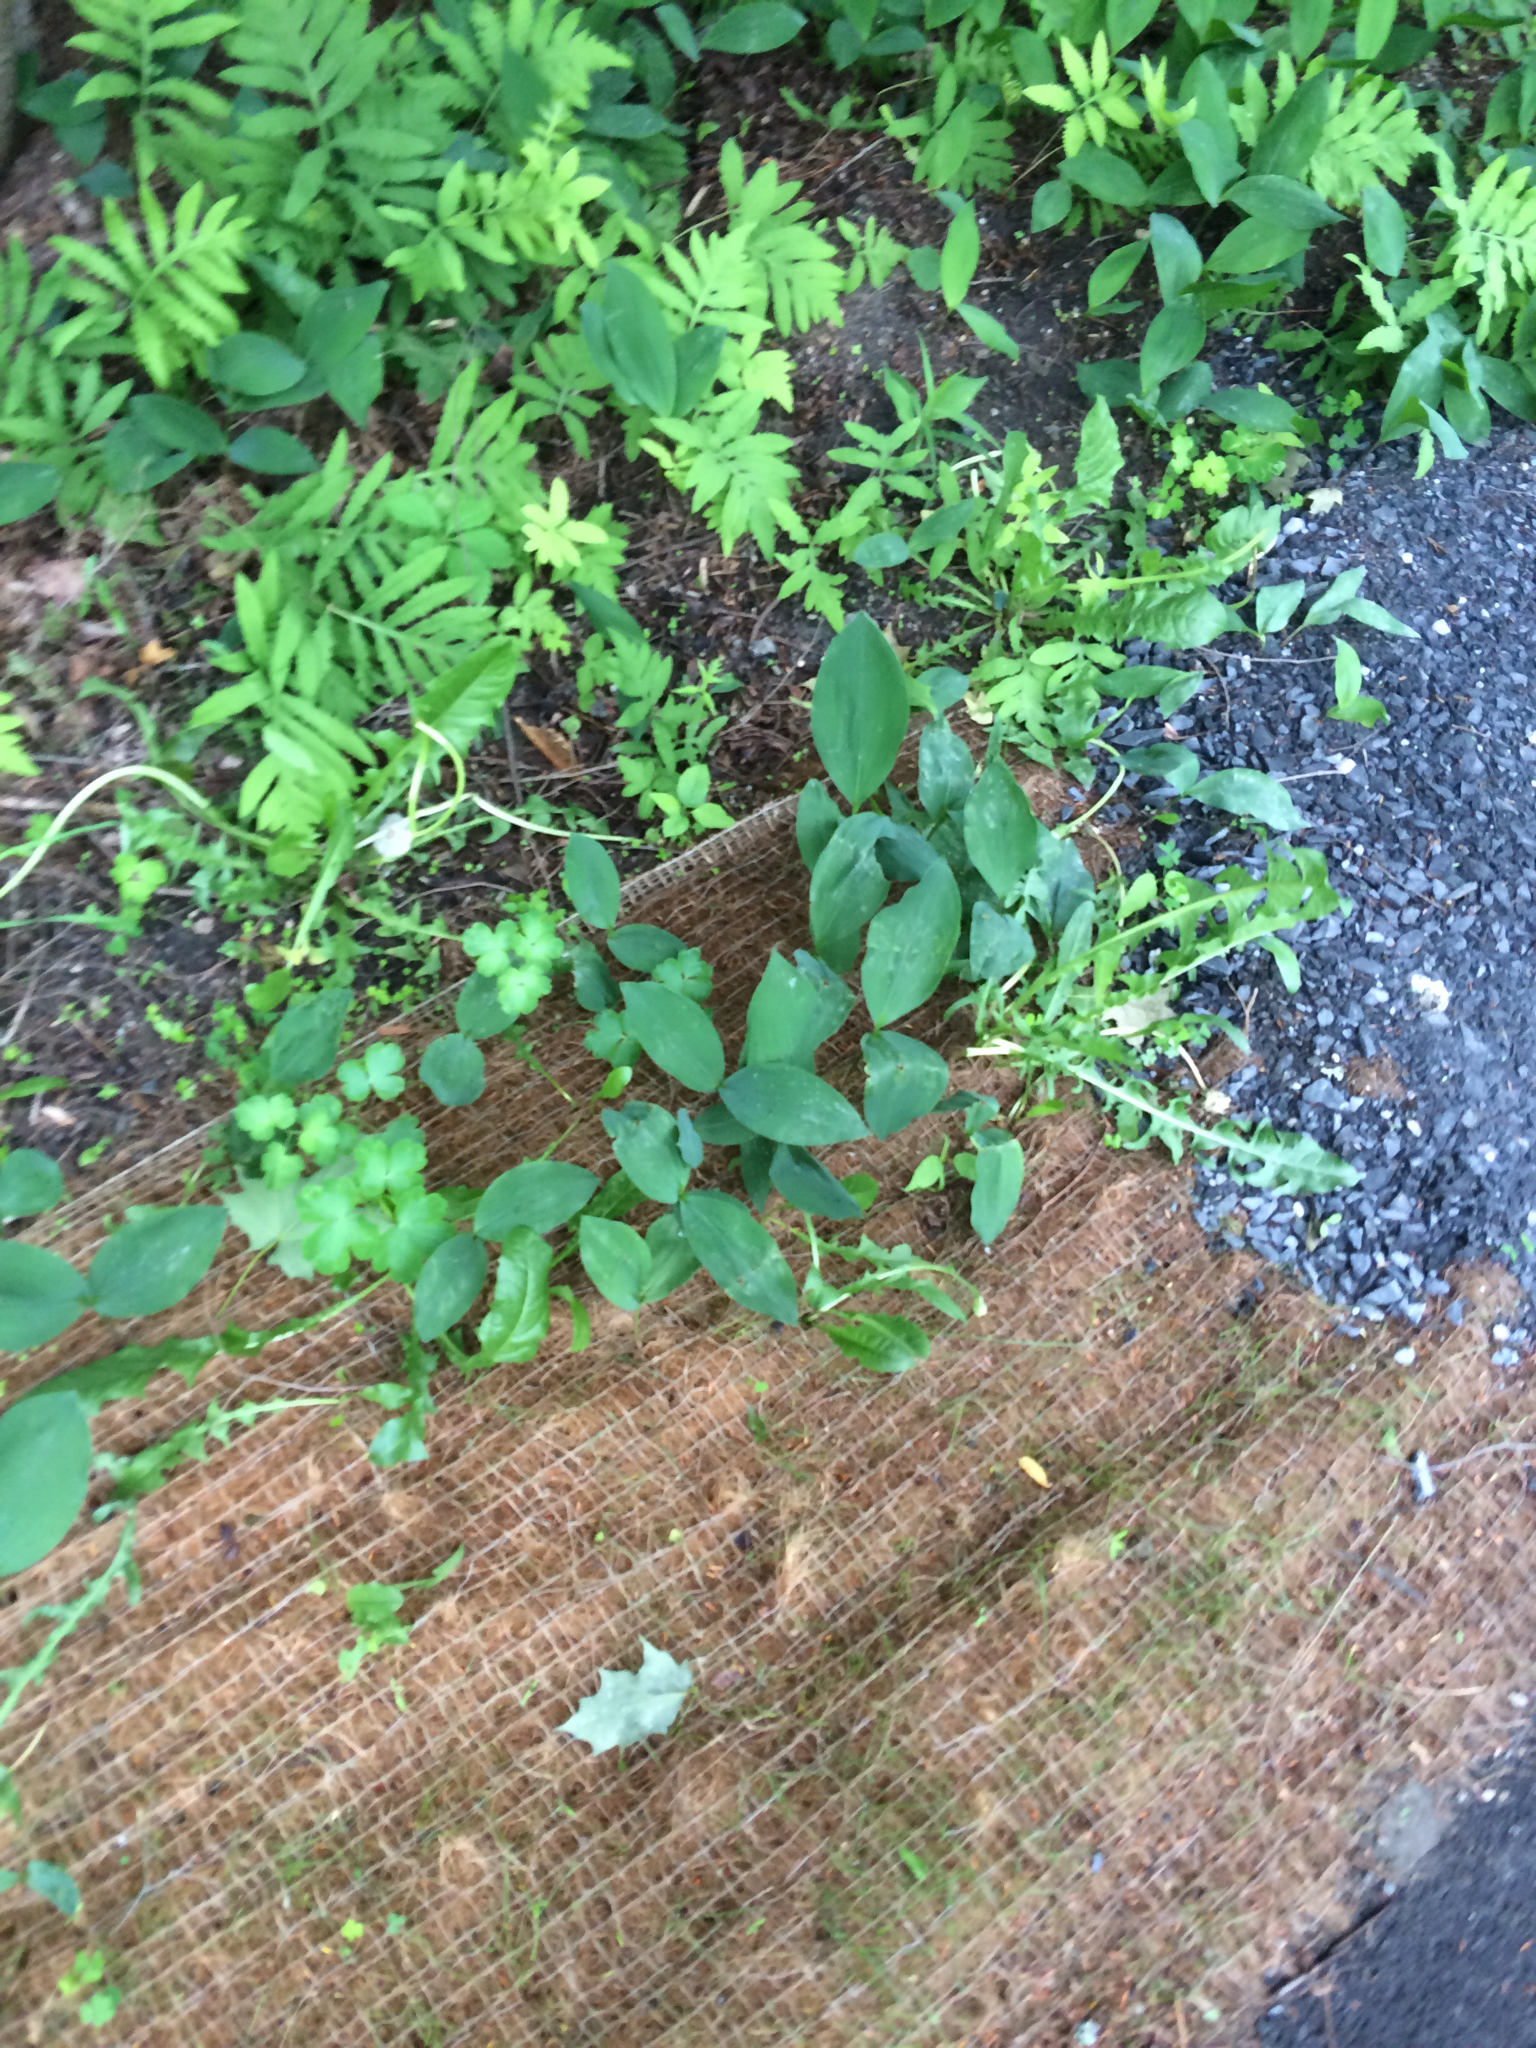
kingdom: Plantae
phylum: Tracheophyta
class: Liliopsida
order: Asparagales
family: Asparagaceae
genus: Convallaria
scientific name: Convallaria majalis
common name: Lily-of-the-valley
